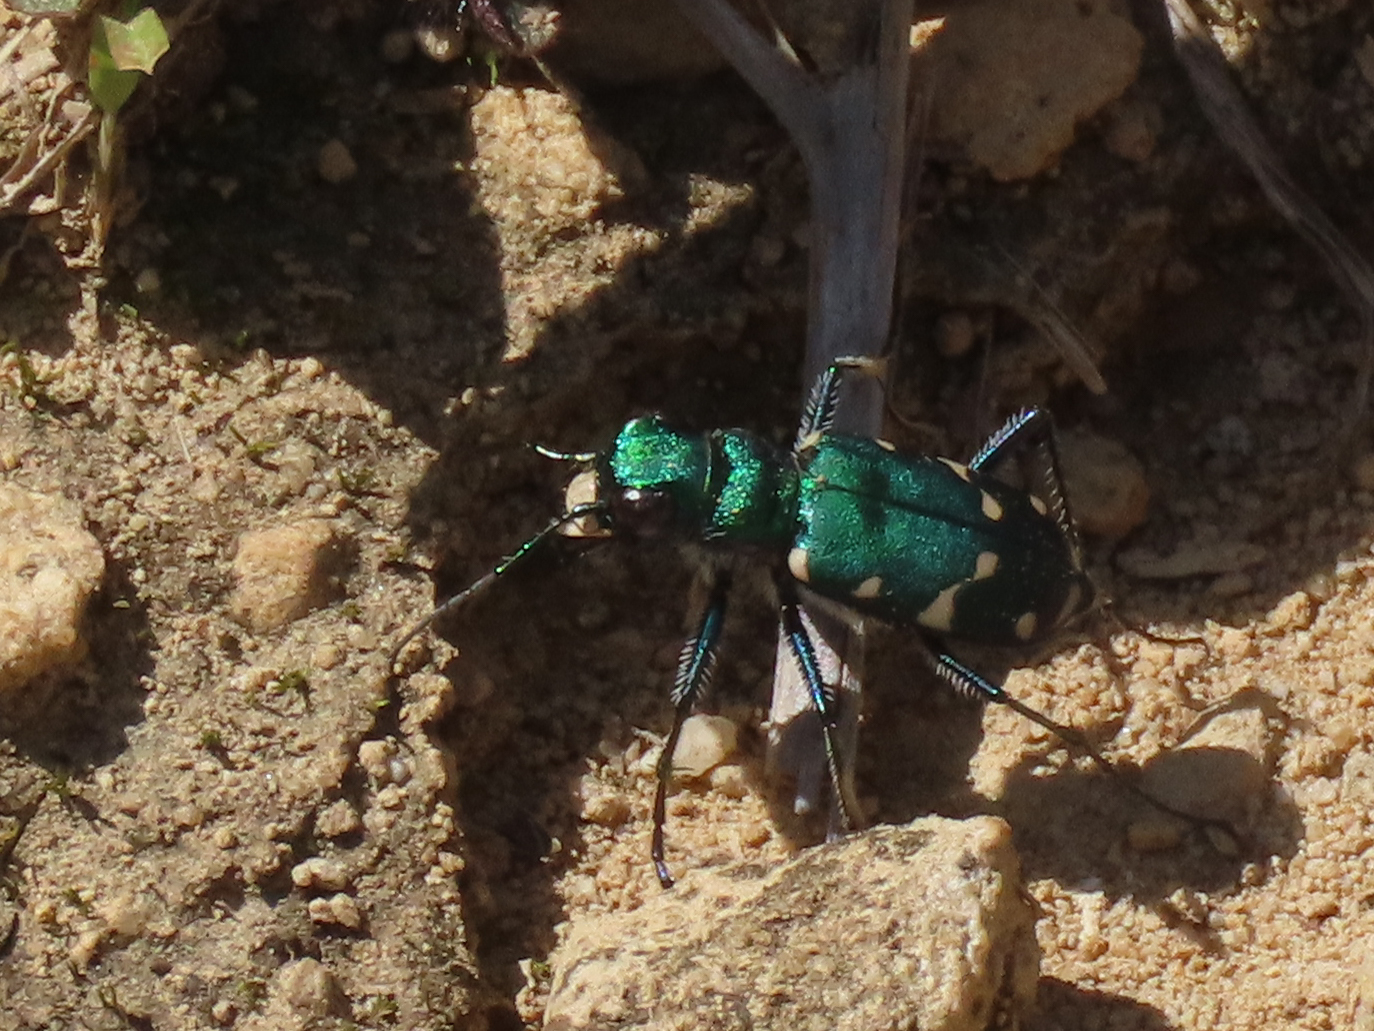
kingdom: Animalia
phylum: Arthropoda
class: Insecta
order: Coleoptera
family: Carabidae
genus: Cicindela
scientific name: Cicindela patruela
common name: Northern barrens tiger beetle
